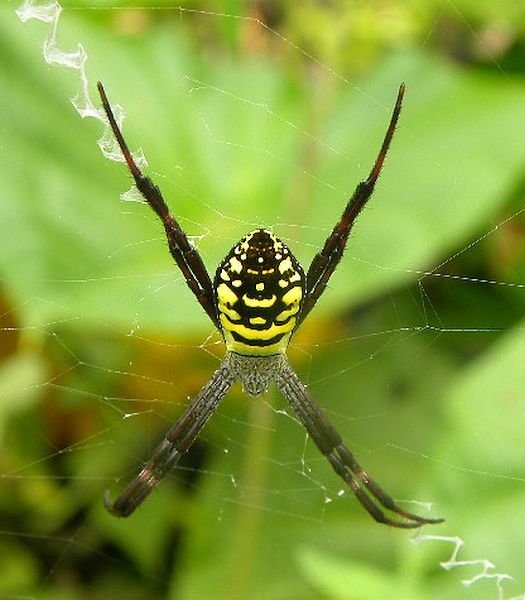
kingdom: Animalia
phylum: Arthropoda
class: Arachnida
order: Araneae
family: Araneidae
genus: Argiope
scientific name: Argiope picta
